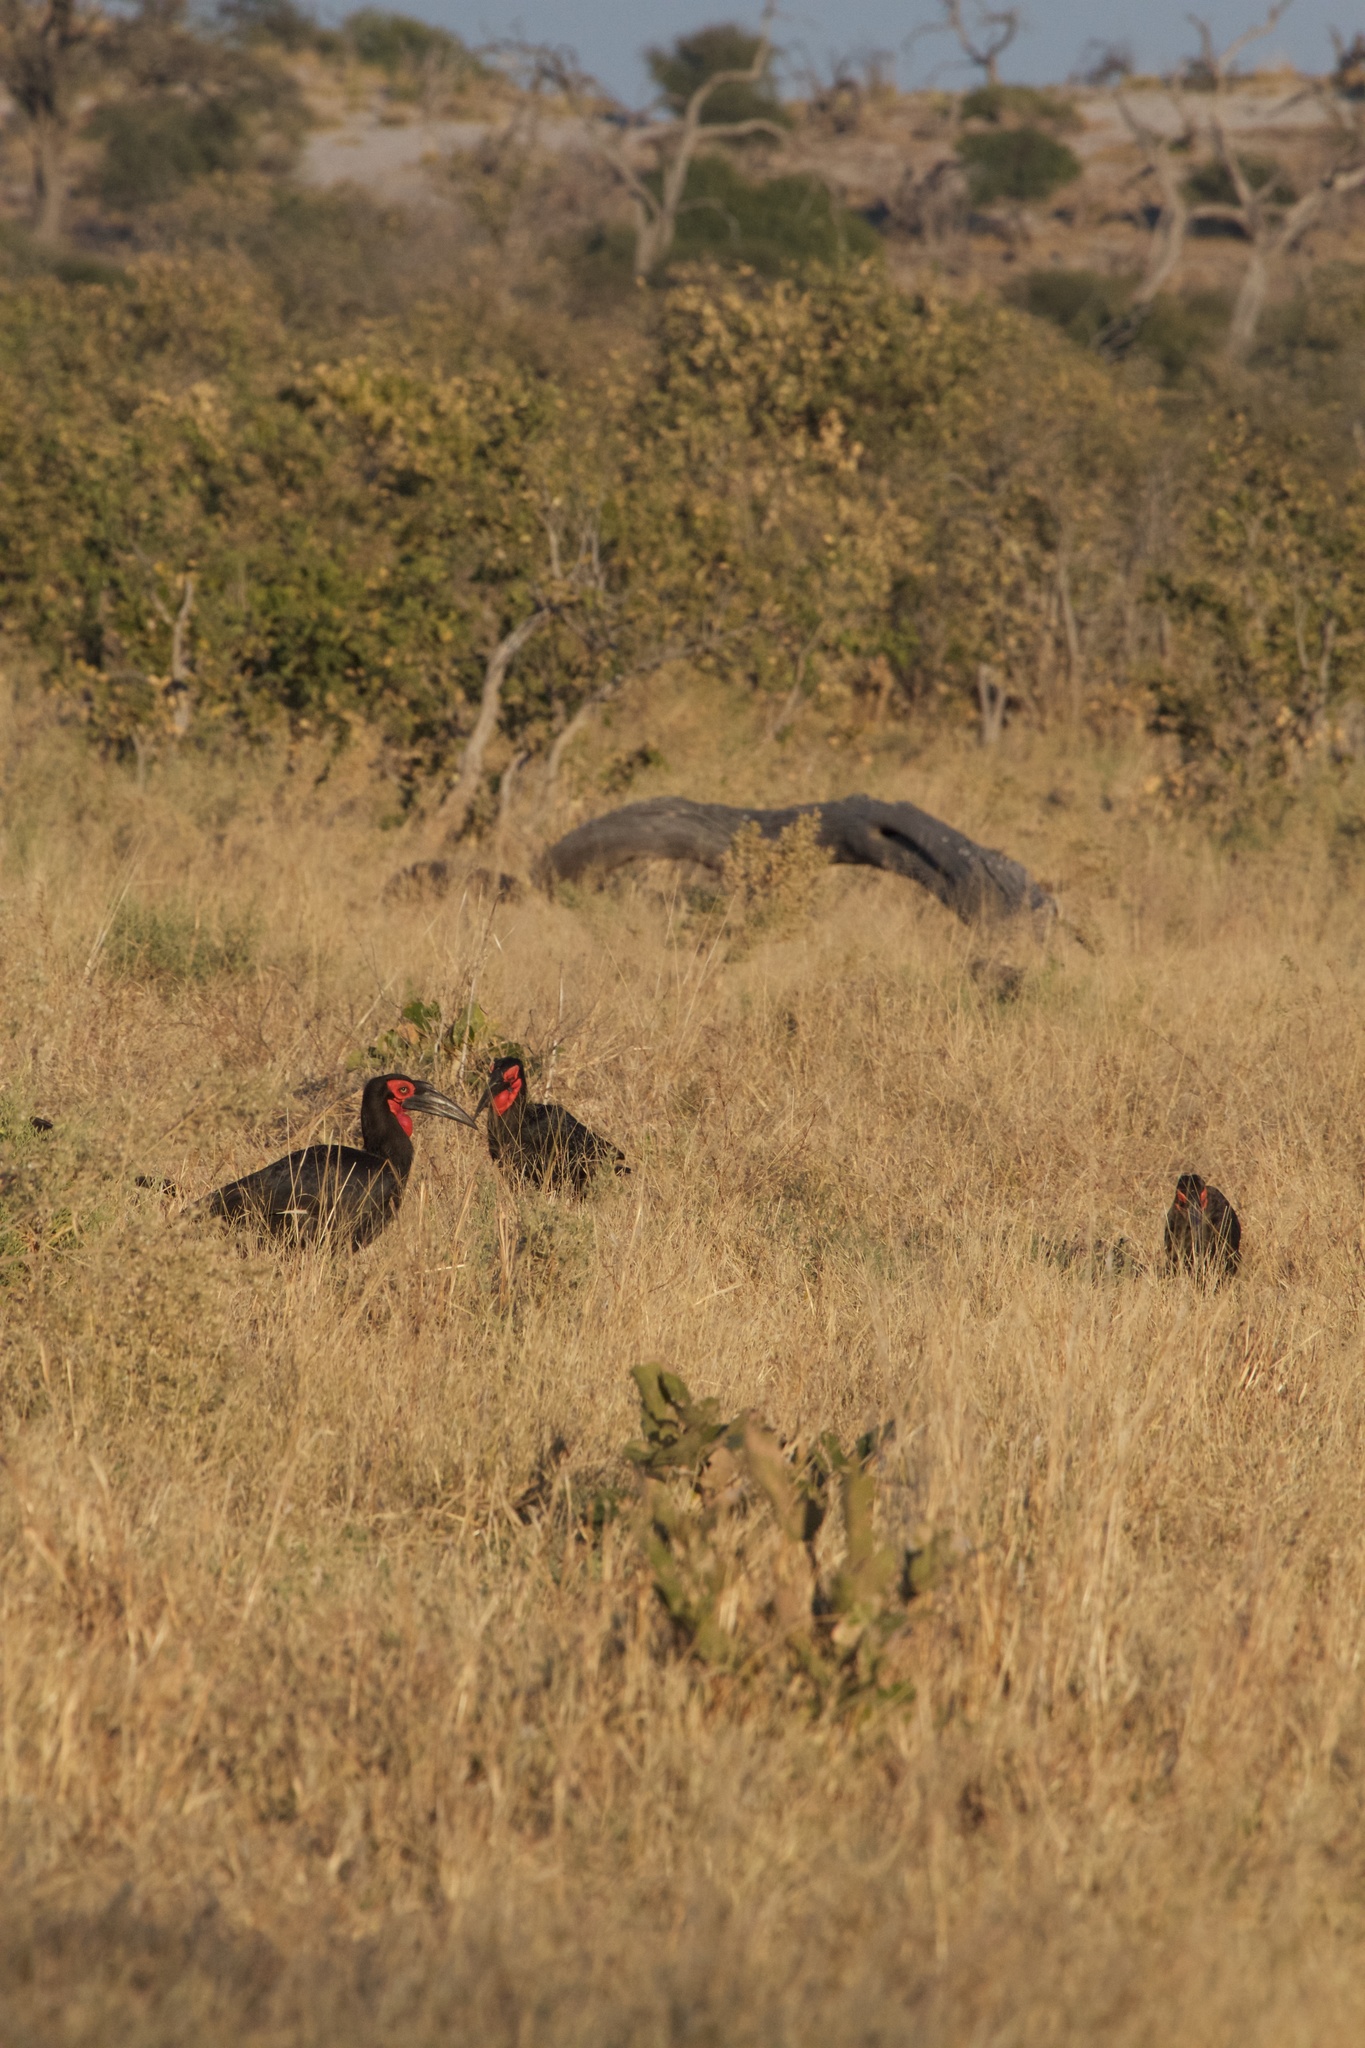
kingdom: Animalia
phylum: Chordata
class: Aves
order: Bucerotiformes
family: Bucorvidae
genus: Bucorvus
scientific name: Bucorvus leadbeateri
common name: Southern ground-hornbill
